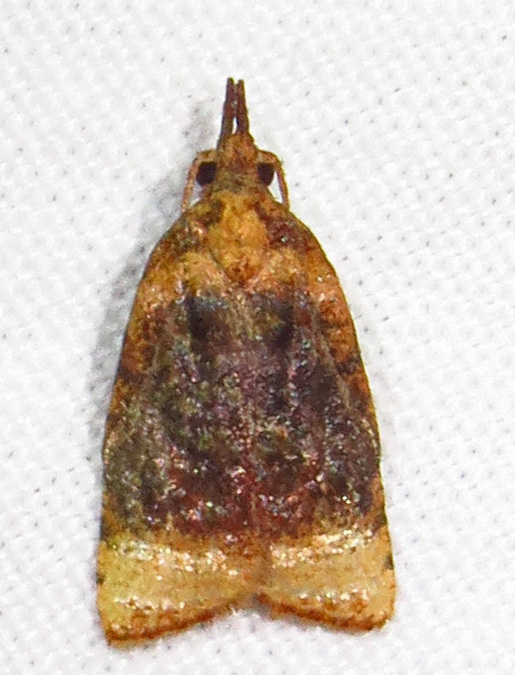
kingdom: Animalia
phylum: Arthropoda
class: Insecta
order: Lepidoptera
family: Tortricidae
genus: Platynota
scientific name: Platynota flavedana
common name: Black-shaded platynota moth
